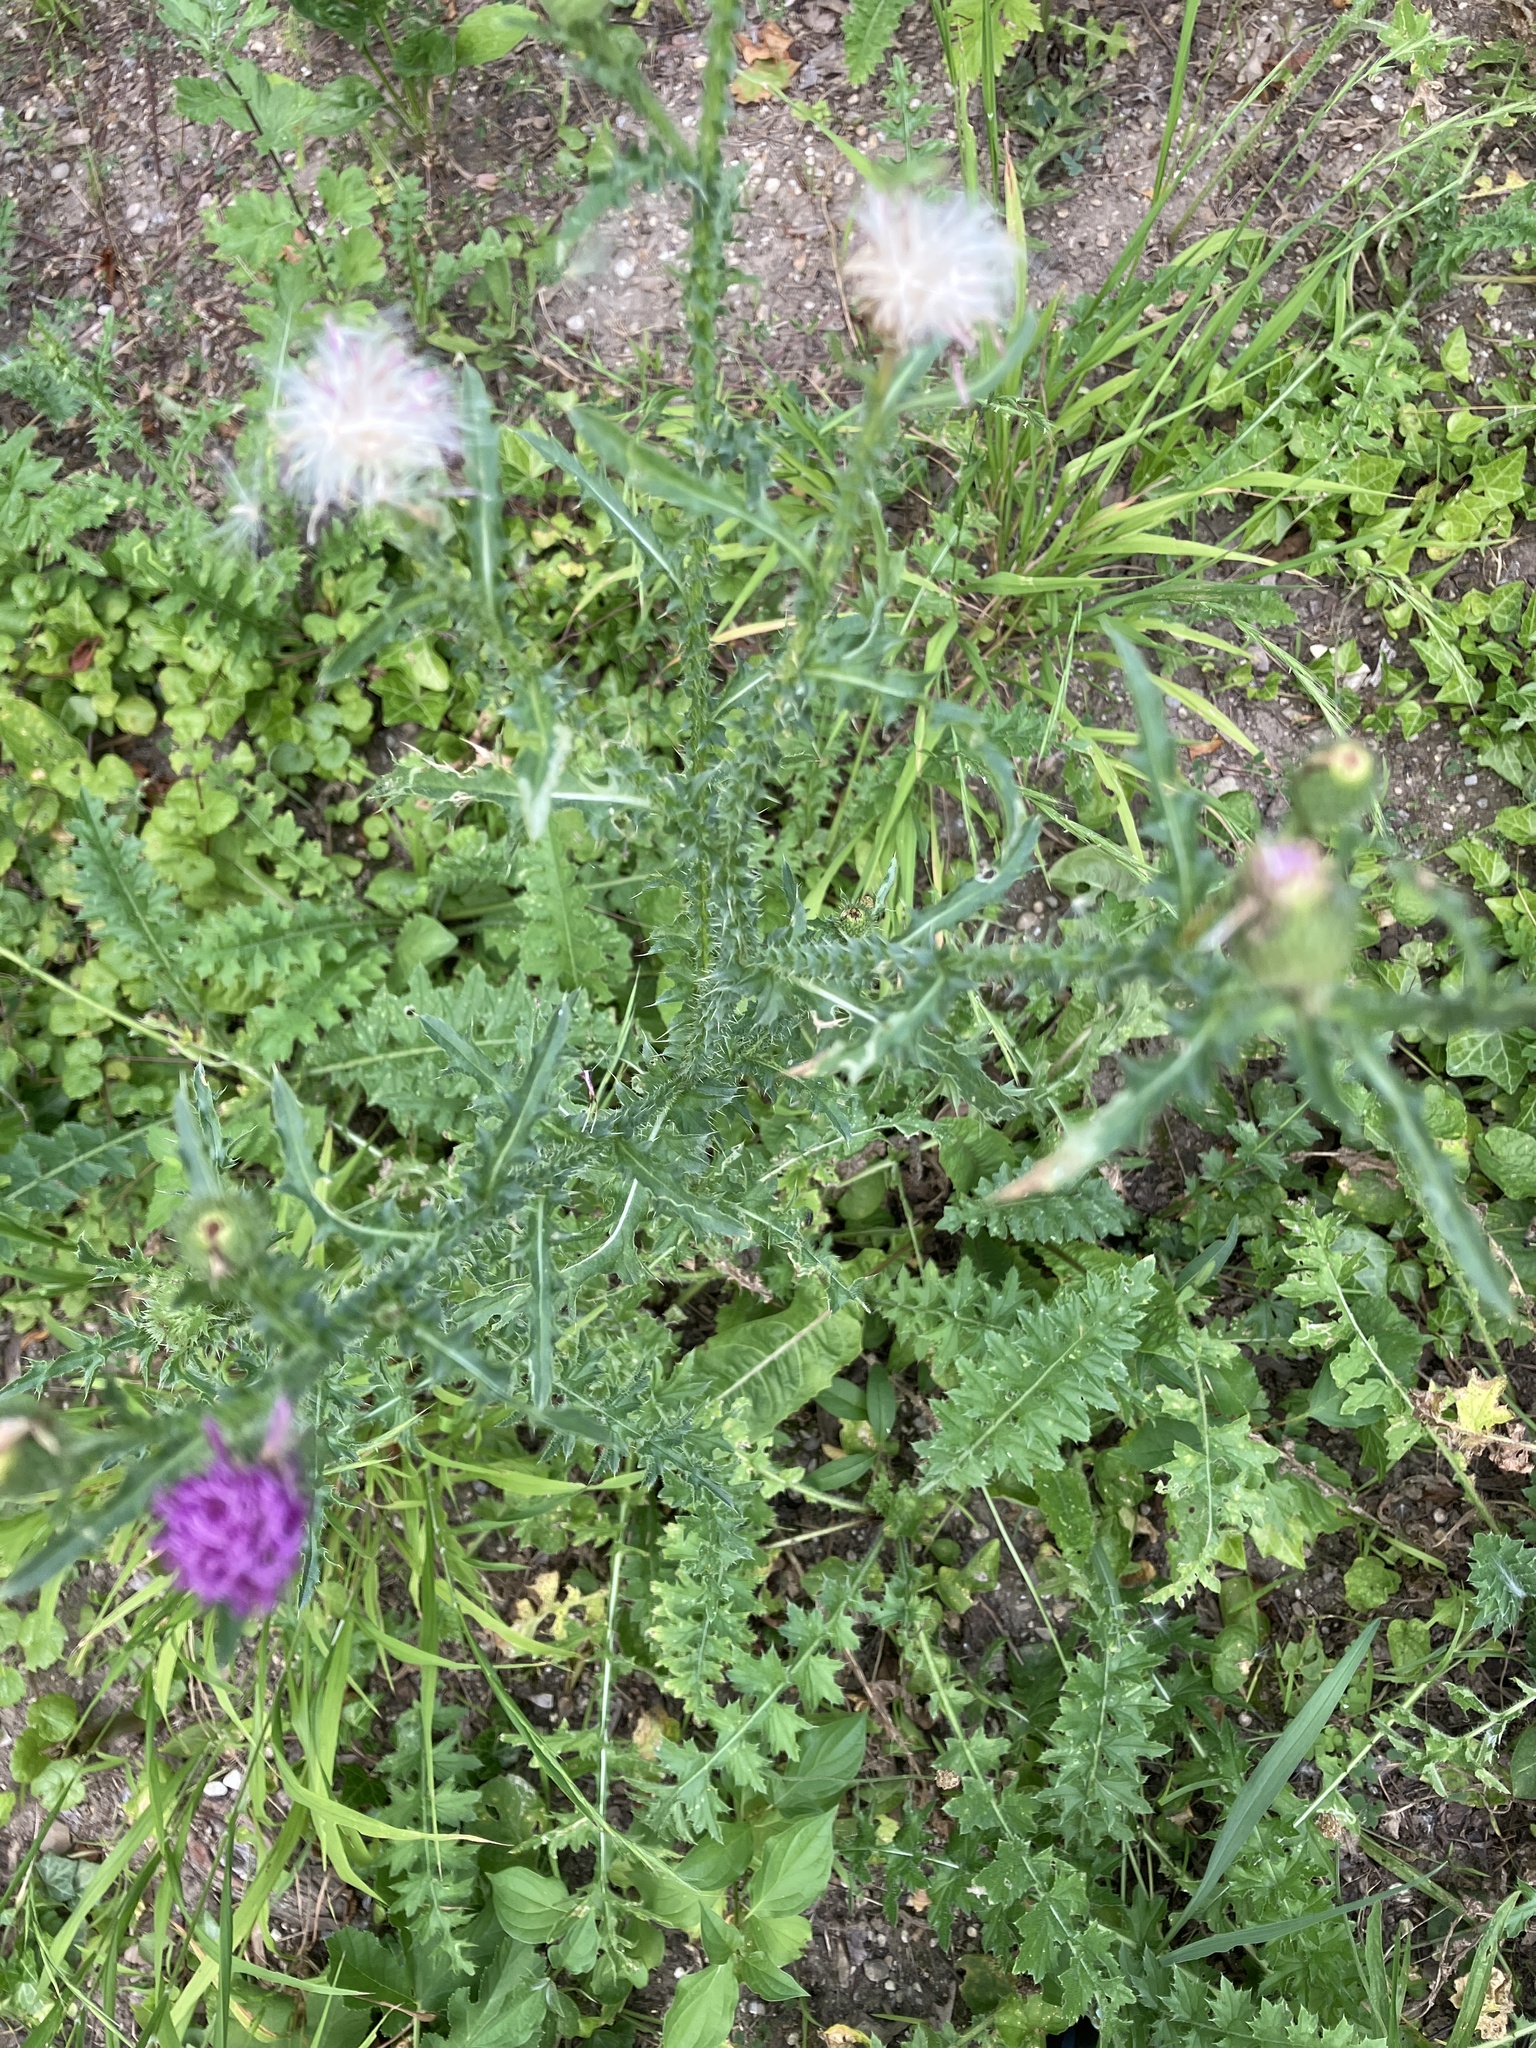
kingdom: Plantae
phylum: Tracheophyta
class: Magnoliopsida
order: Asterales
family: Asteraceae
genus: Carduus
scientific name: Carduus acanthoides
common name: Plumeless thistle
